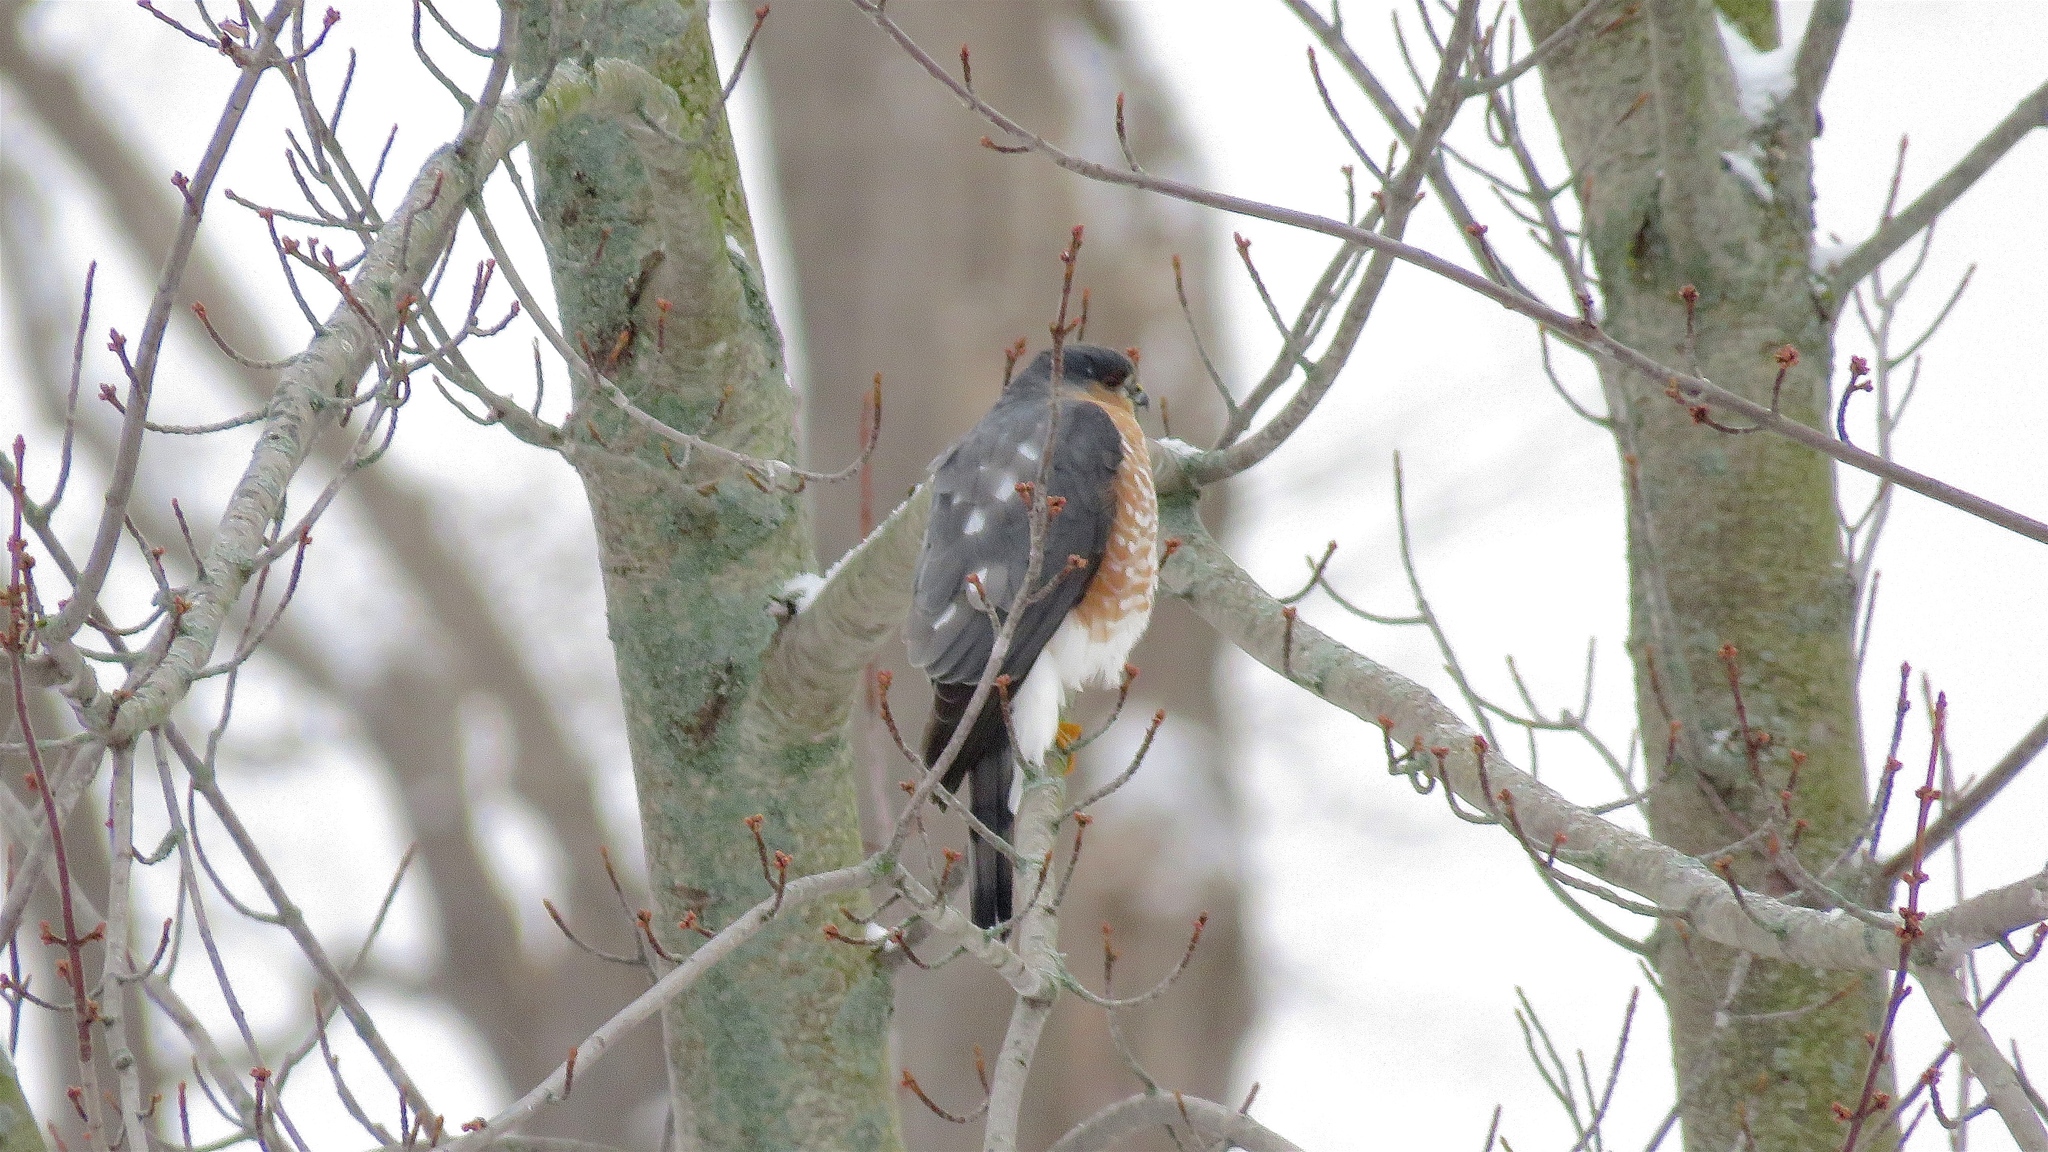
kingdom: Animalia
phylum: Chordata
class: Aves
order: Accipitriformes
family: Accipitridae
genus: Accipiter
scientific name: Accipiter striatus
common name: Sharp-shinned hawk
